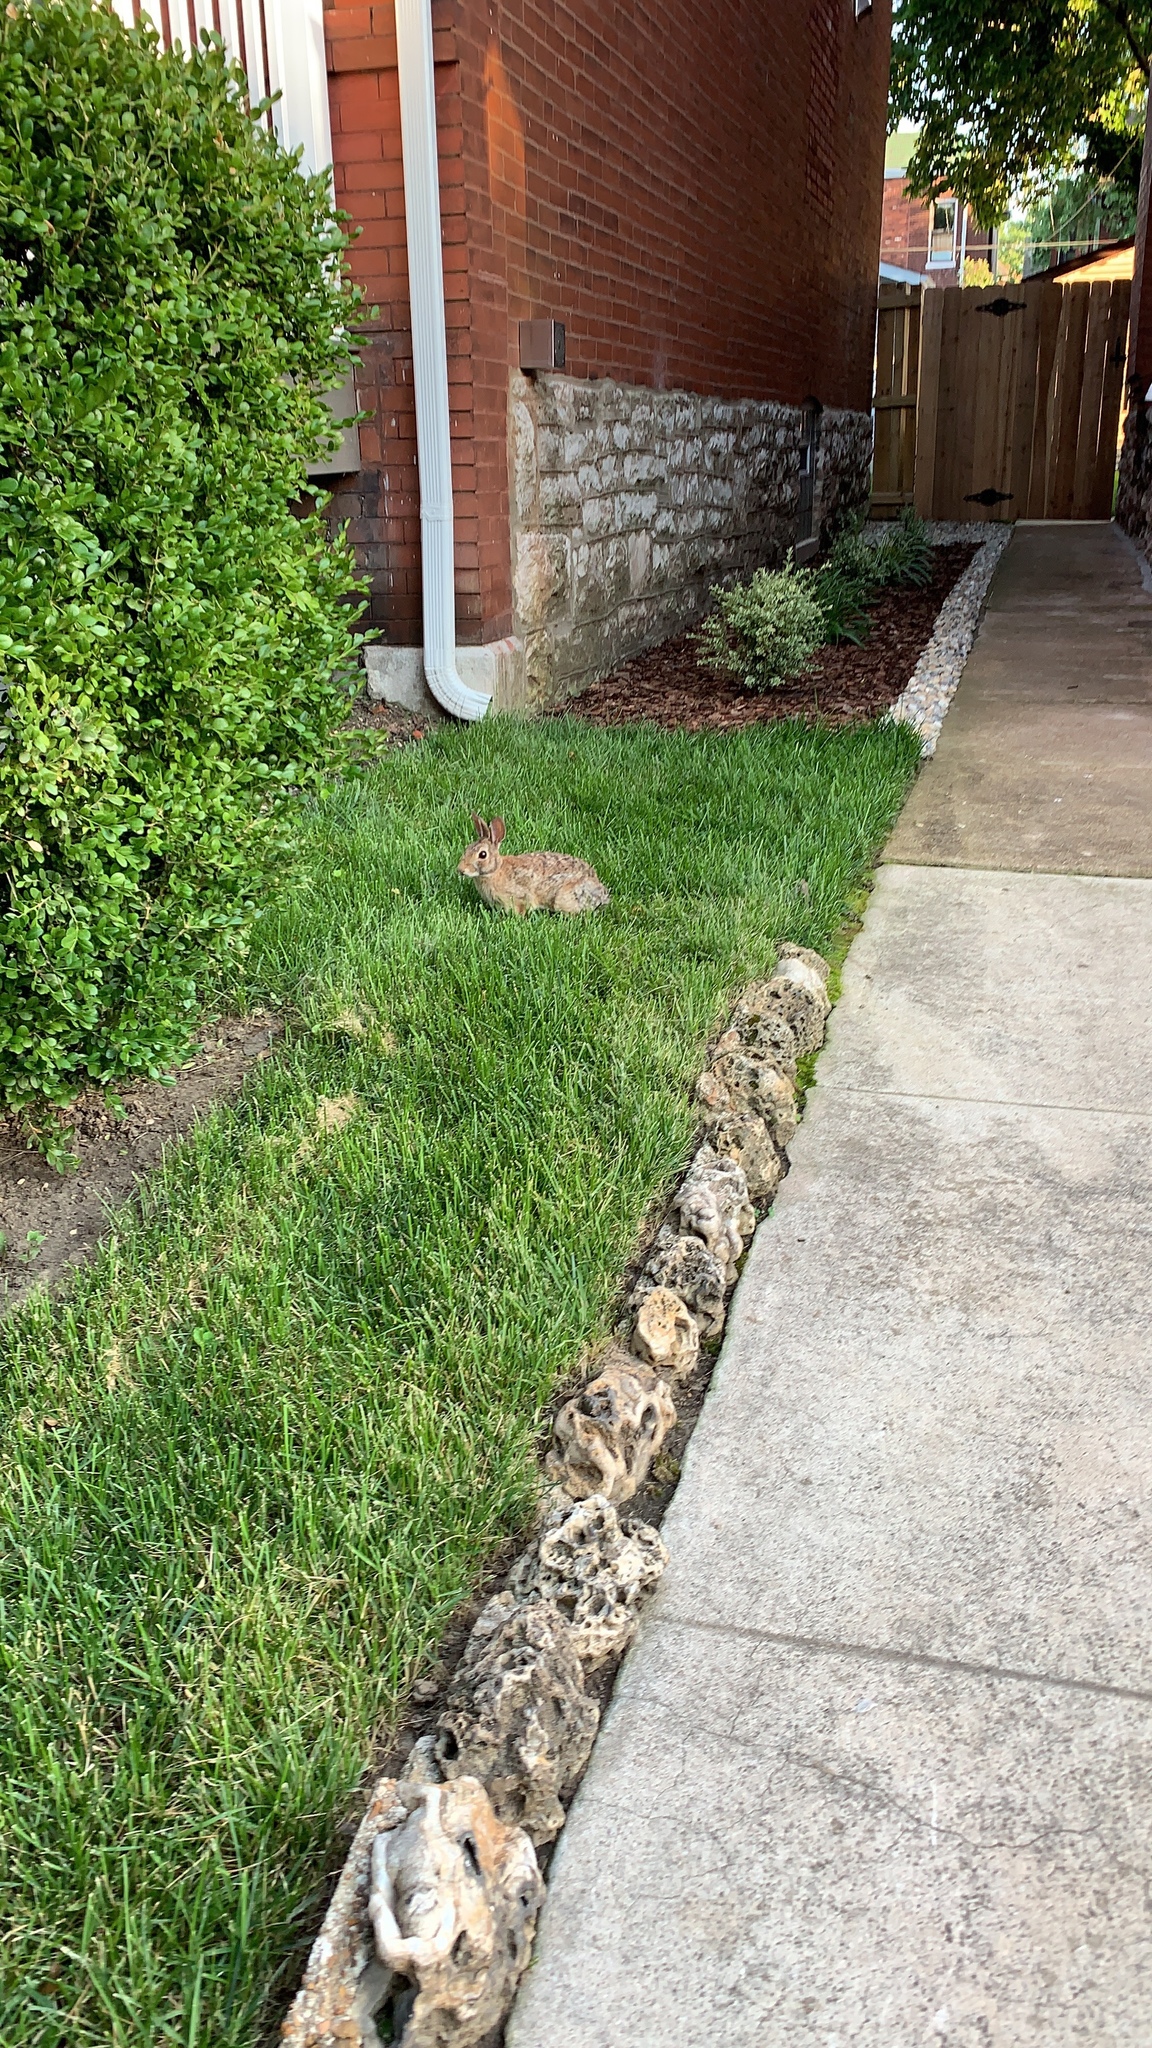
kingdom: Animalia
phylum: Chordata
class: Mammalia
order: Lagomorpha
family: Leporidae
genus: Sylvilagus
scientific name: Sylvilagus floridanus
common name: Eastern cottontail
